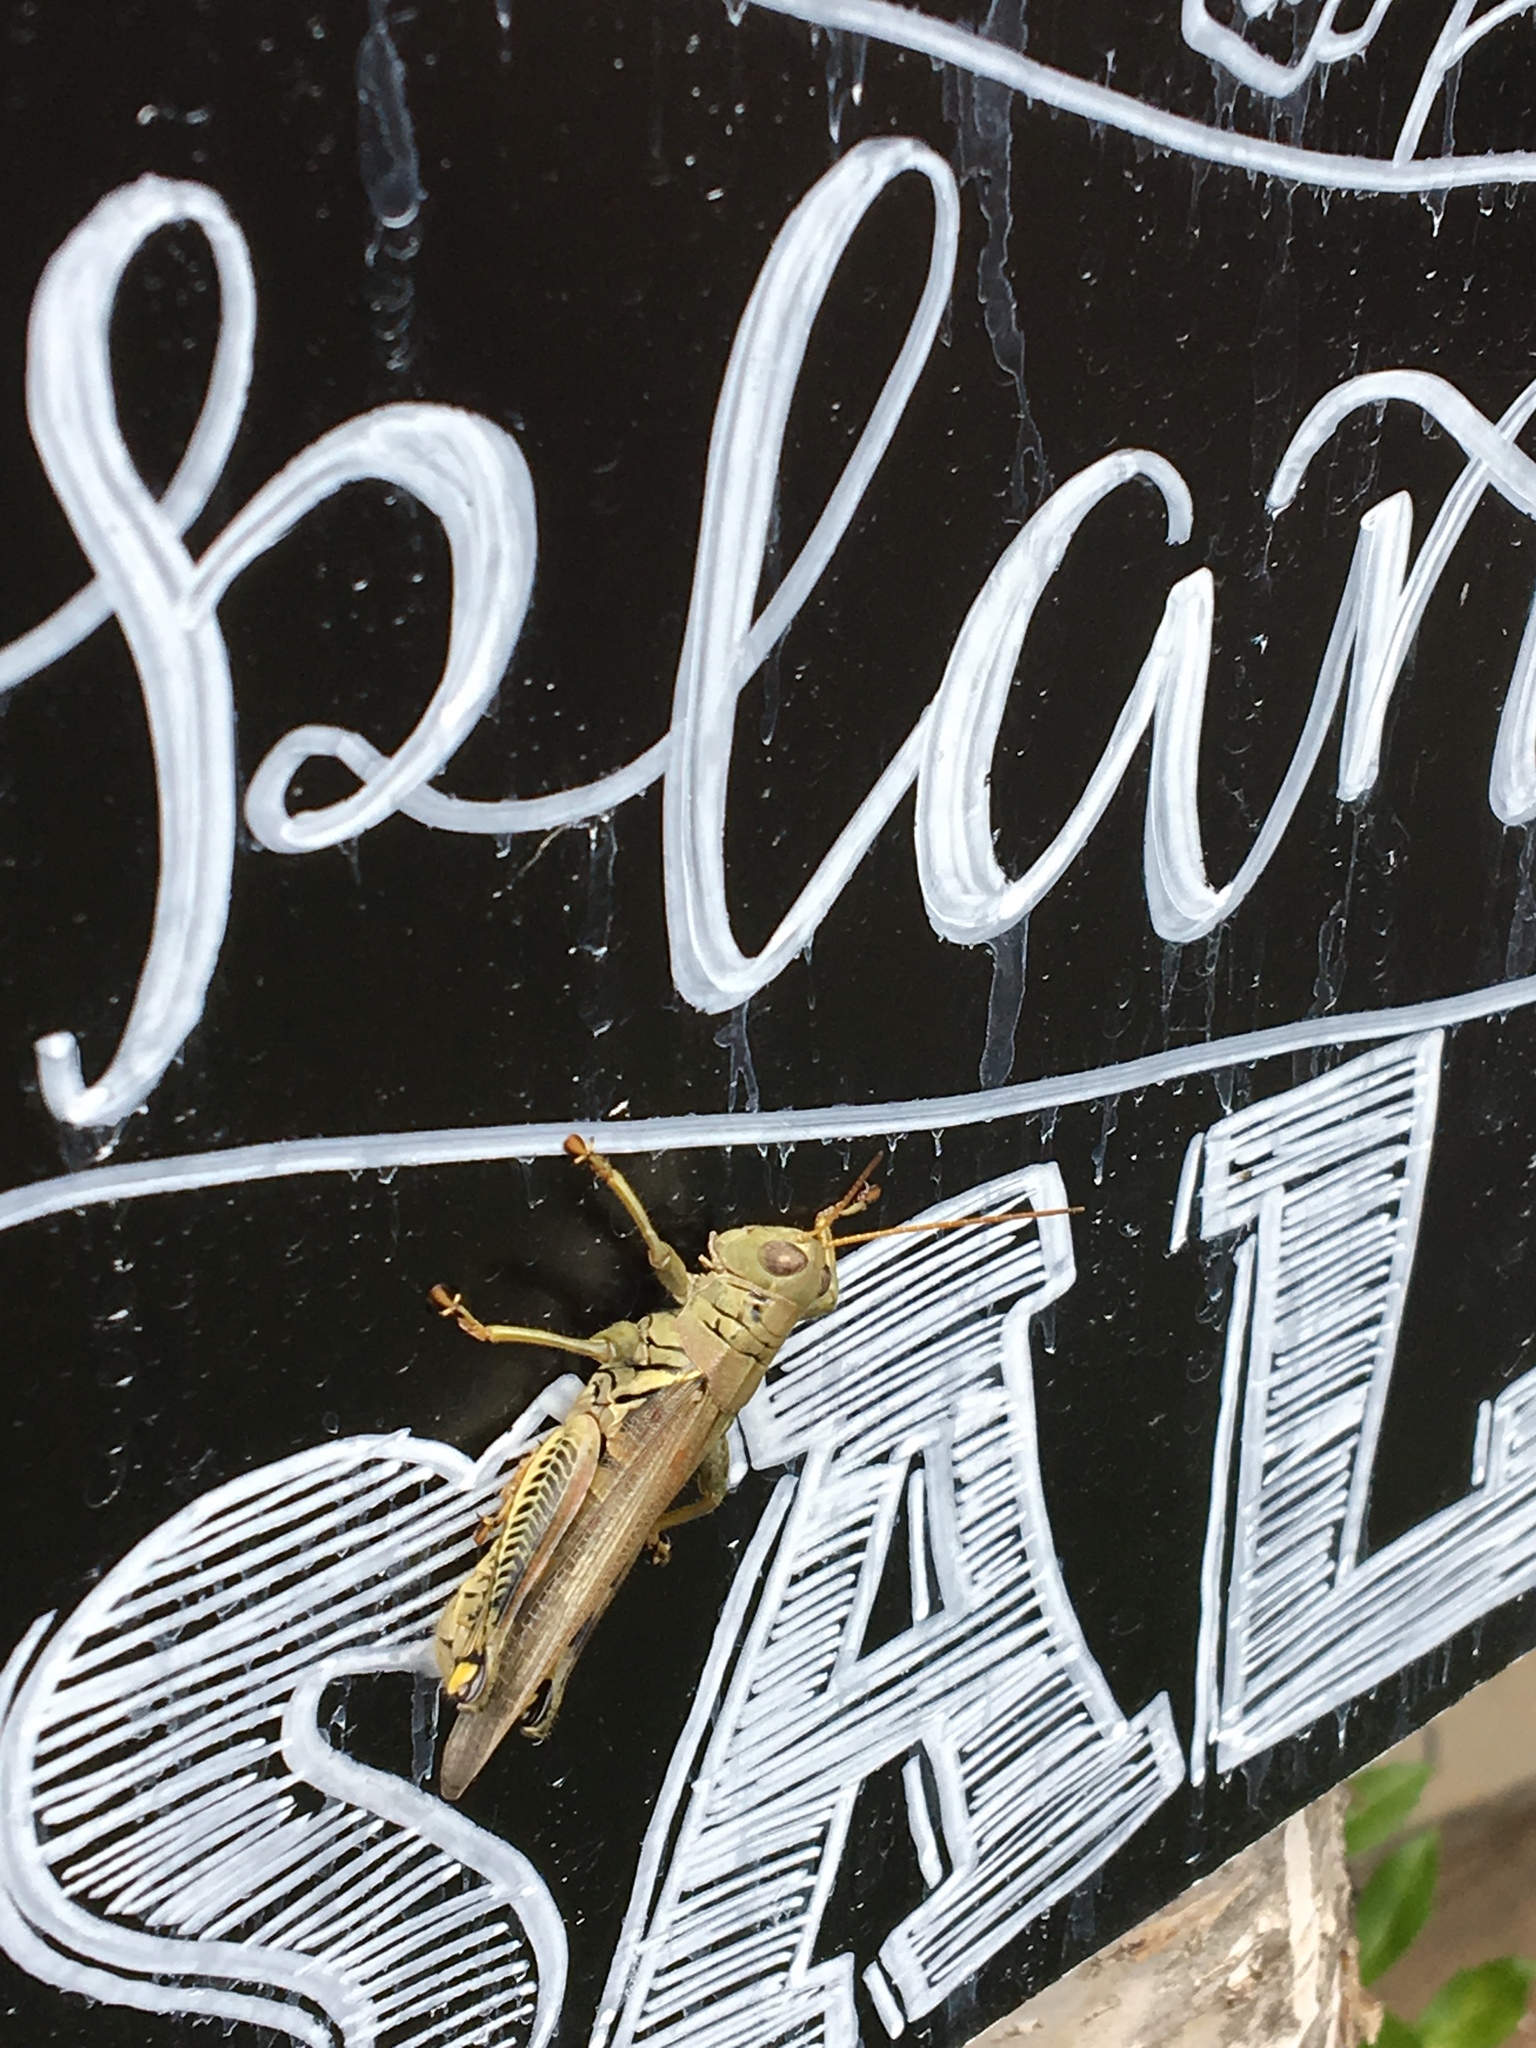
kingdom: Animalia
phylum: Arthropoda
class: Insecta
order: Orthoptera
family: Acrididae
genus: Melanoplus
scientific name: Melanoplus differentialis
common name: Differential grasshopper
